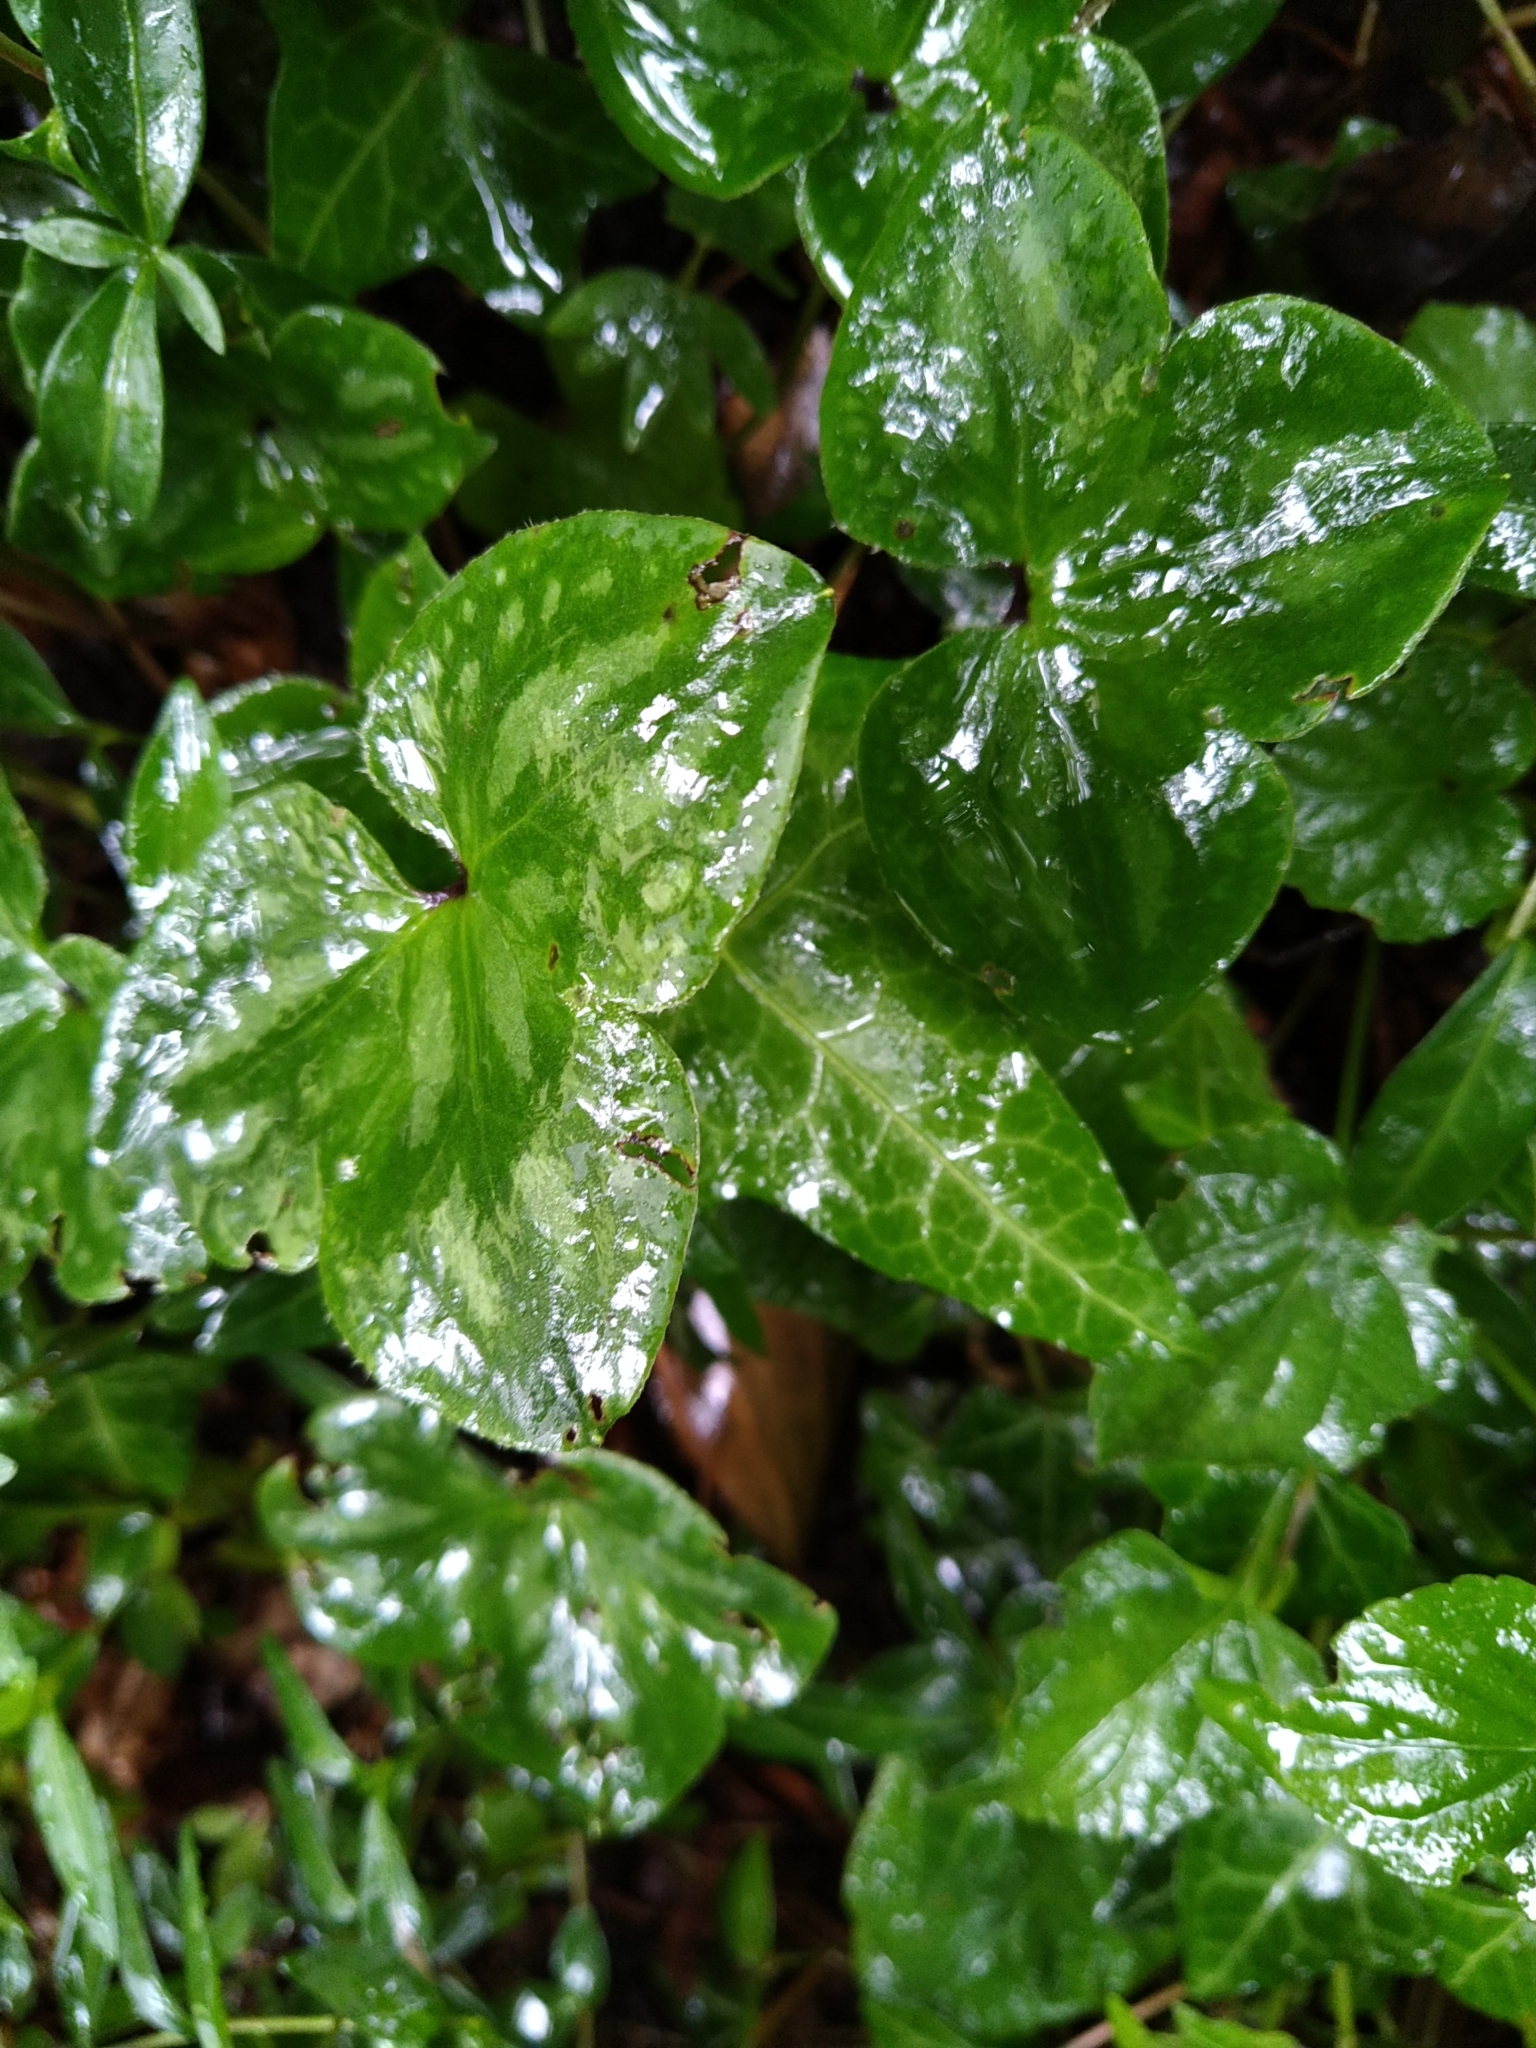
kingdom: Plantae
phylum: Tracheophyta
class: Magnoliopsida
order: Ranunculales
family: Ranunculaceae
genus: Hepatica
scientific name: Hepatica nobilis
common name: Liverleaf
